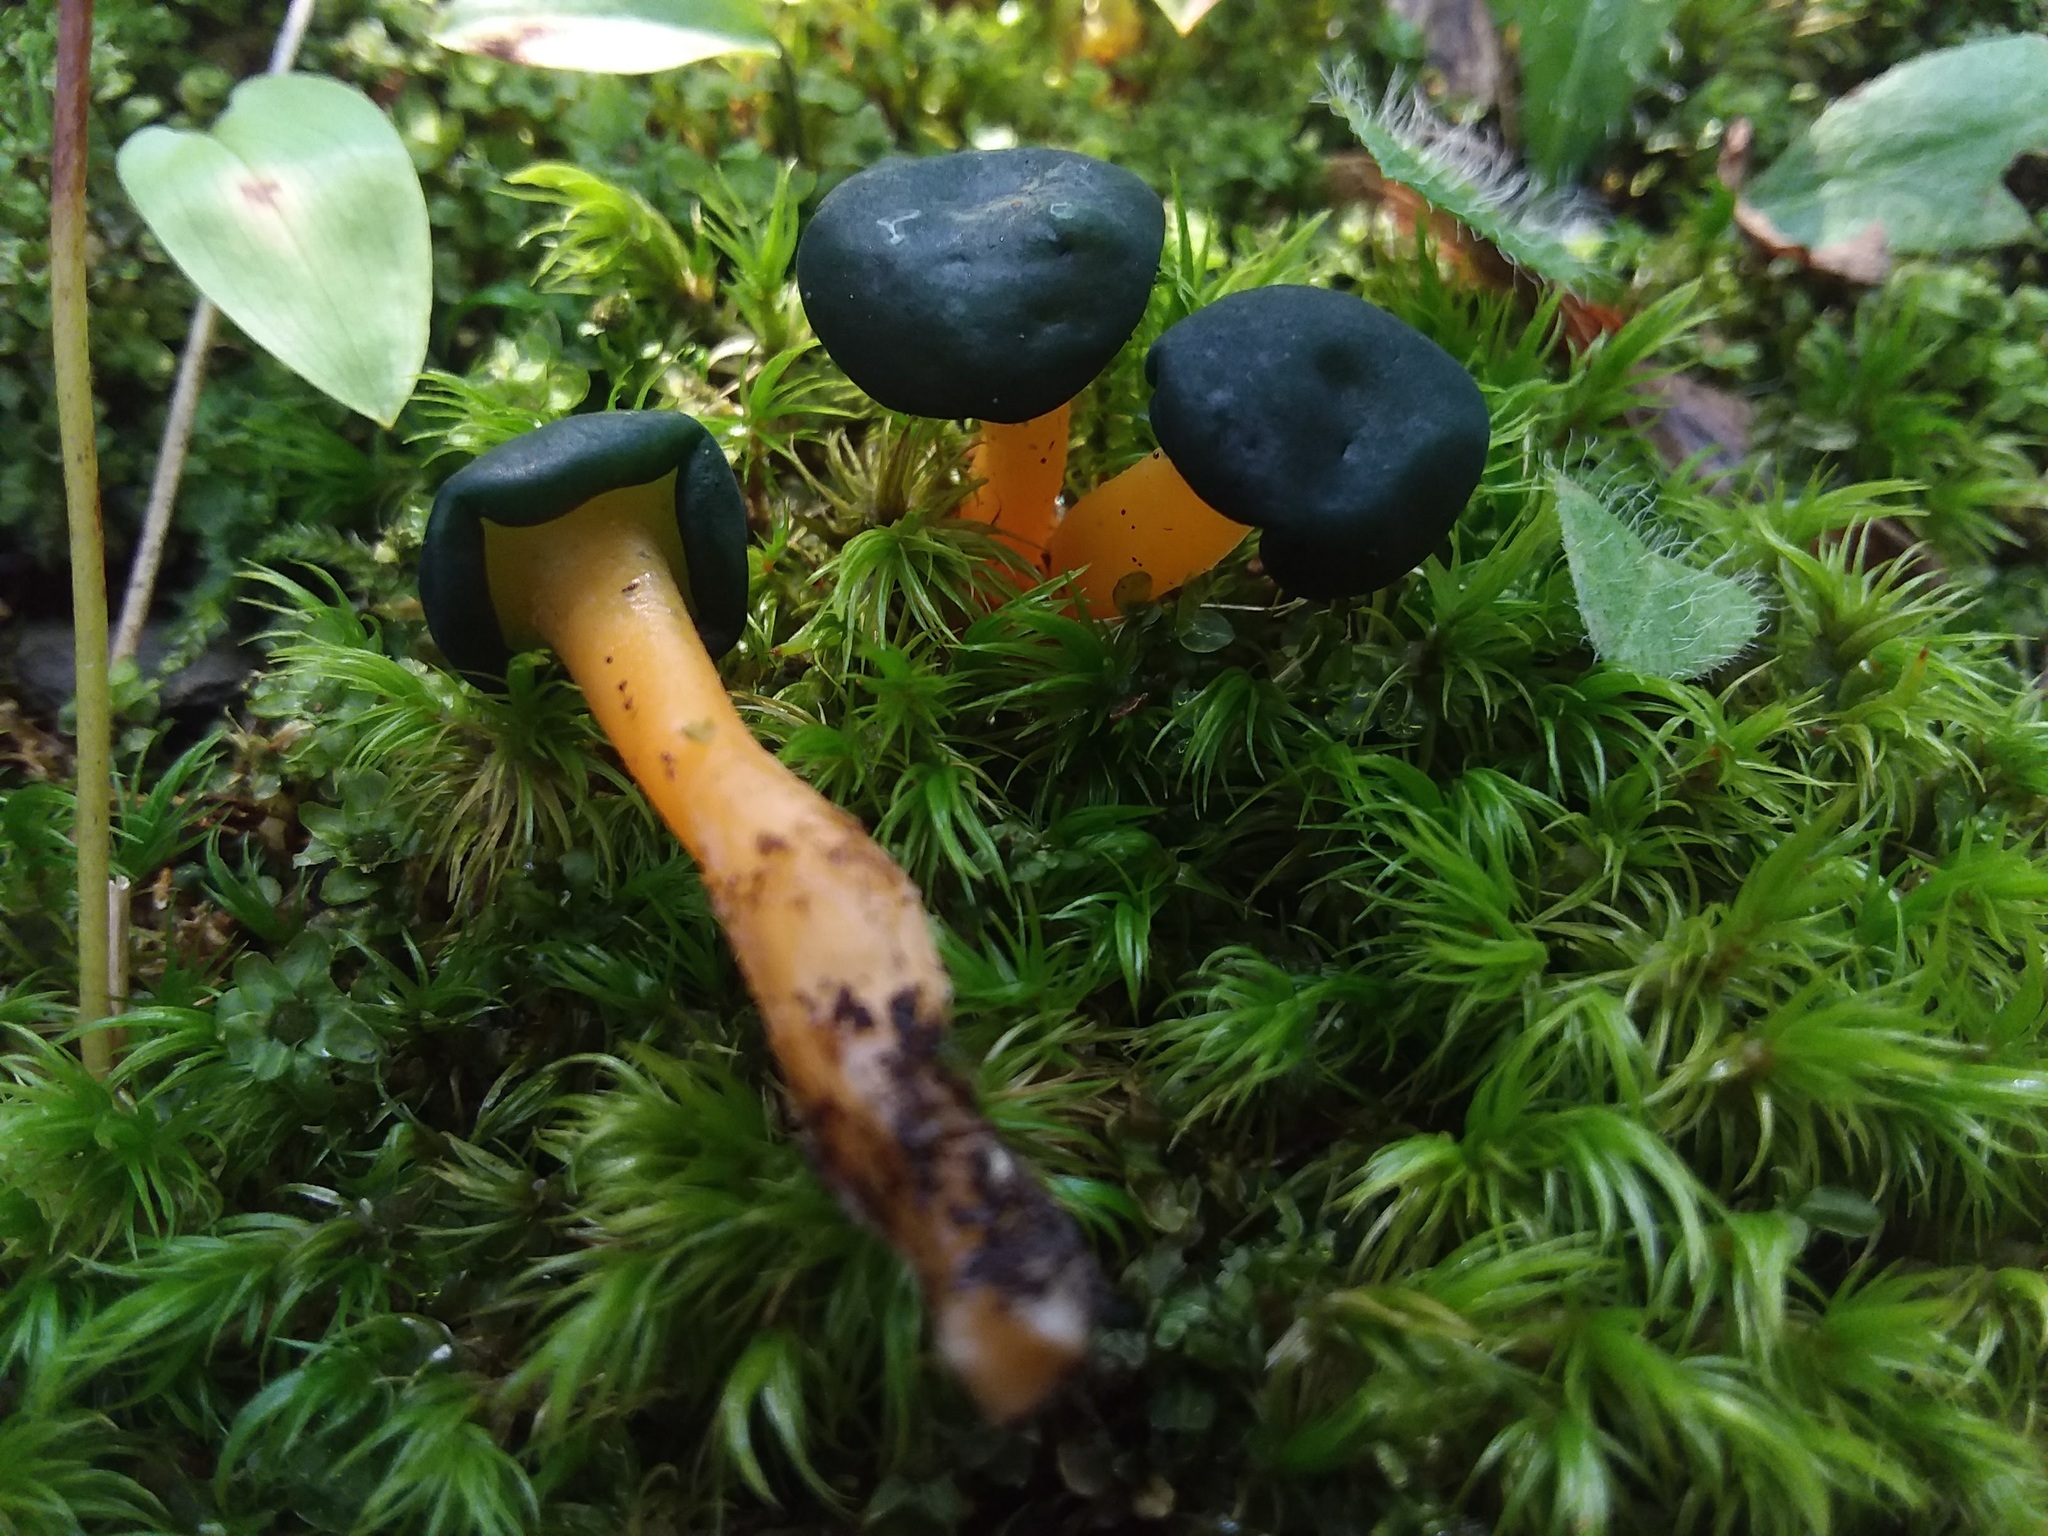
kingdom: Fungi
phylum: Ascomycota
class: Leotiomycetes
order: Leotiales
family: Leotiaceae
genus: Leotia
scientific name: Leotia lubrica
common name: Jellybaby
